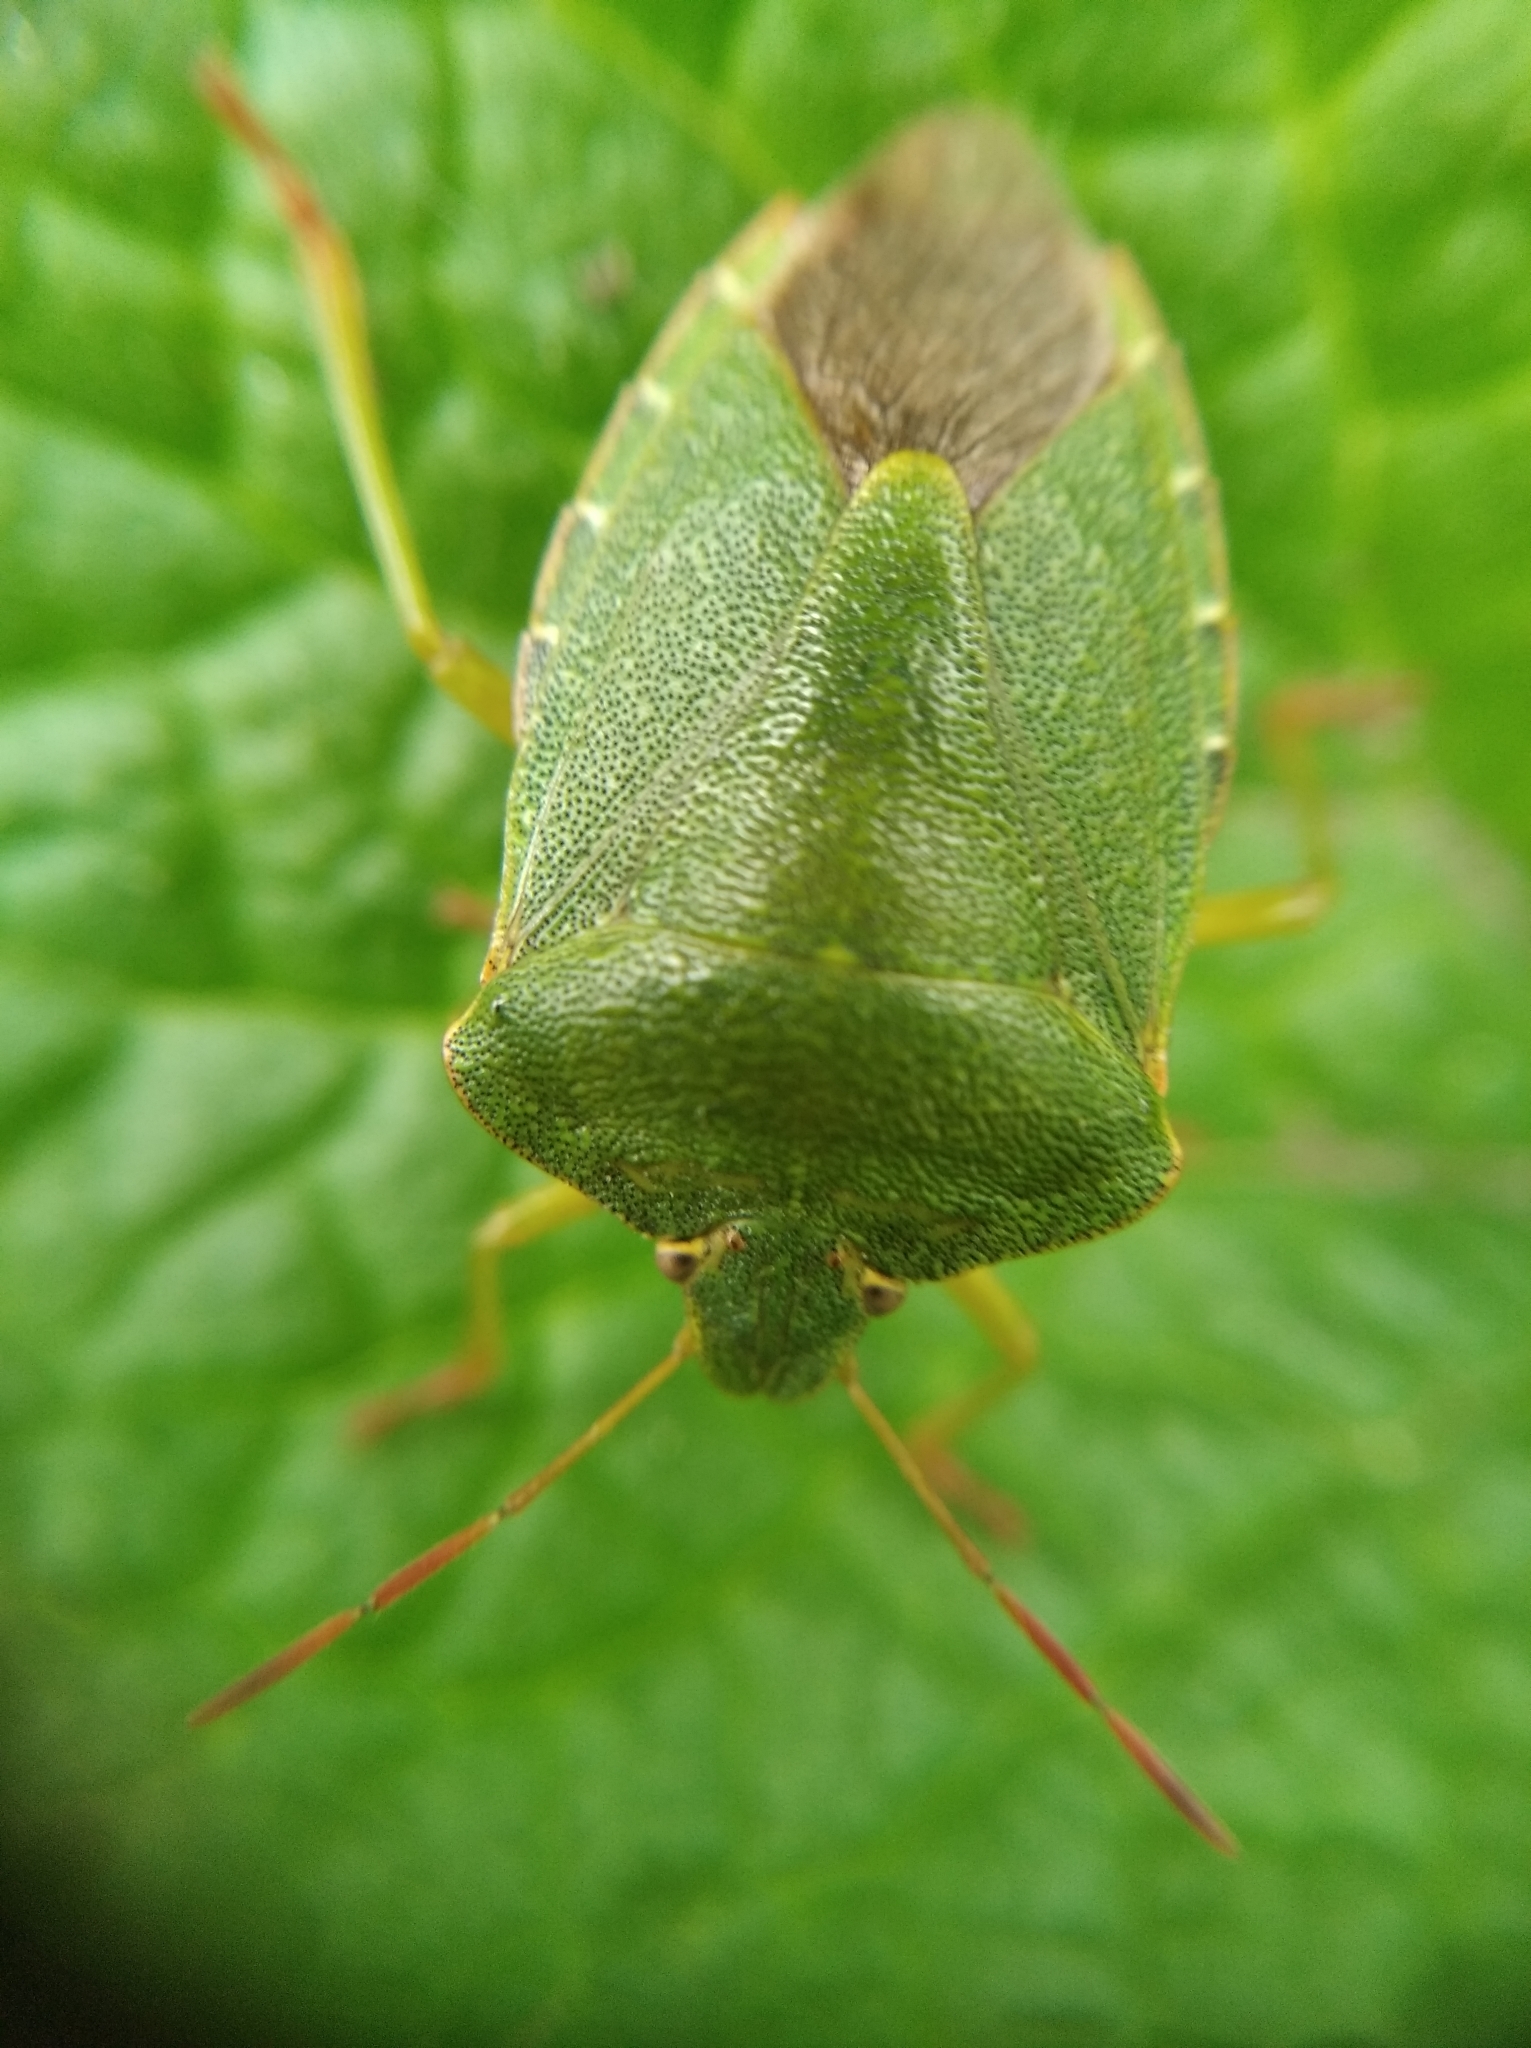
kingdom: Animalia
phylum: Arthropoda
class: Insecta
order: Hemiptera
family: Pentatomidae
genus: Palomena
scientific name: Palomena prasina
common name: Green shieldbug
